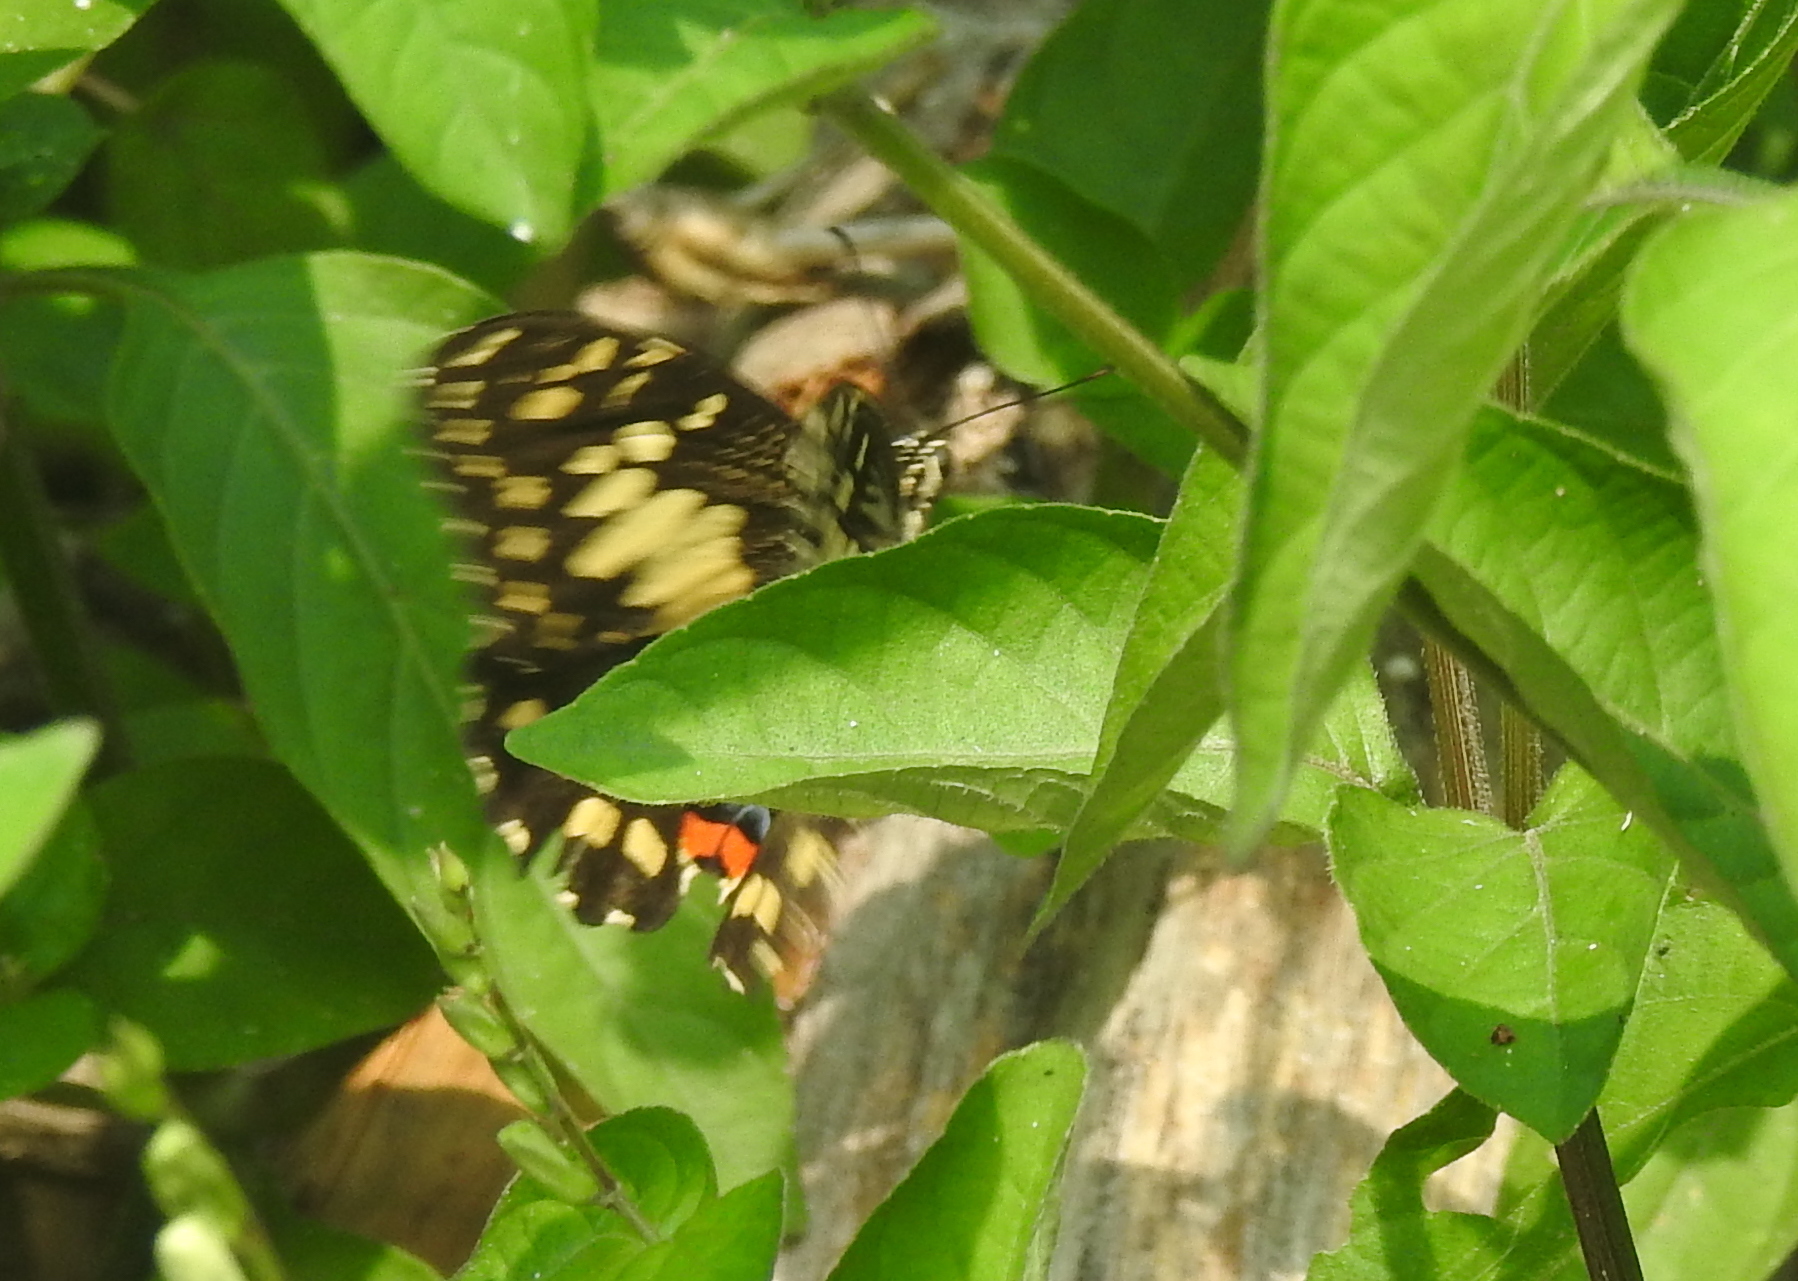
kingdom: Animalia
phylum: Arthropoda
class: Insecta
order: Lepidoptera
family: Papilionidae
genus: Papilio
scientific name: Papilio demoleus
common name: Lime butterfly
